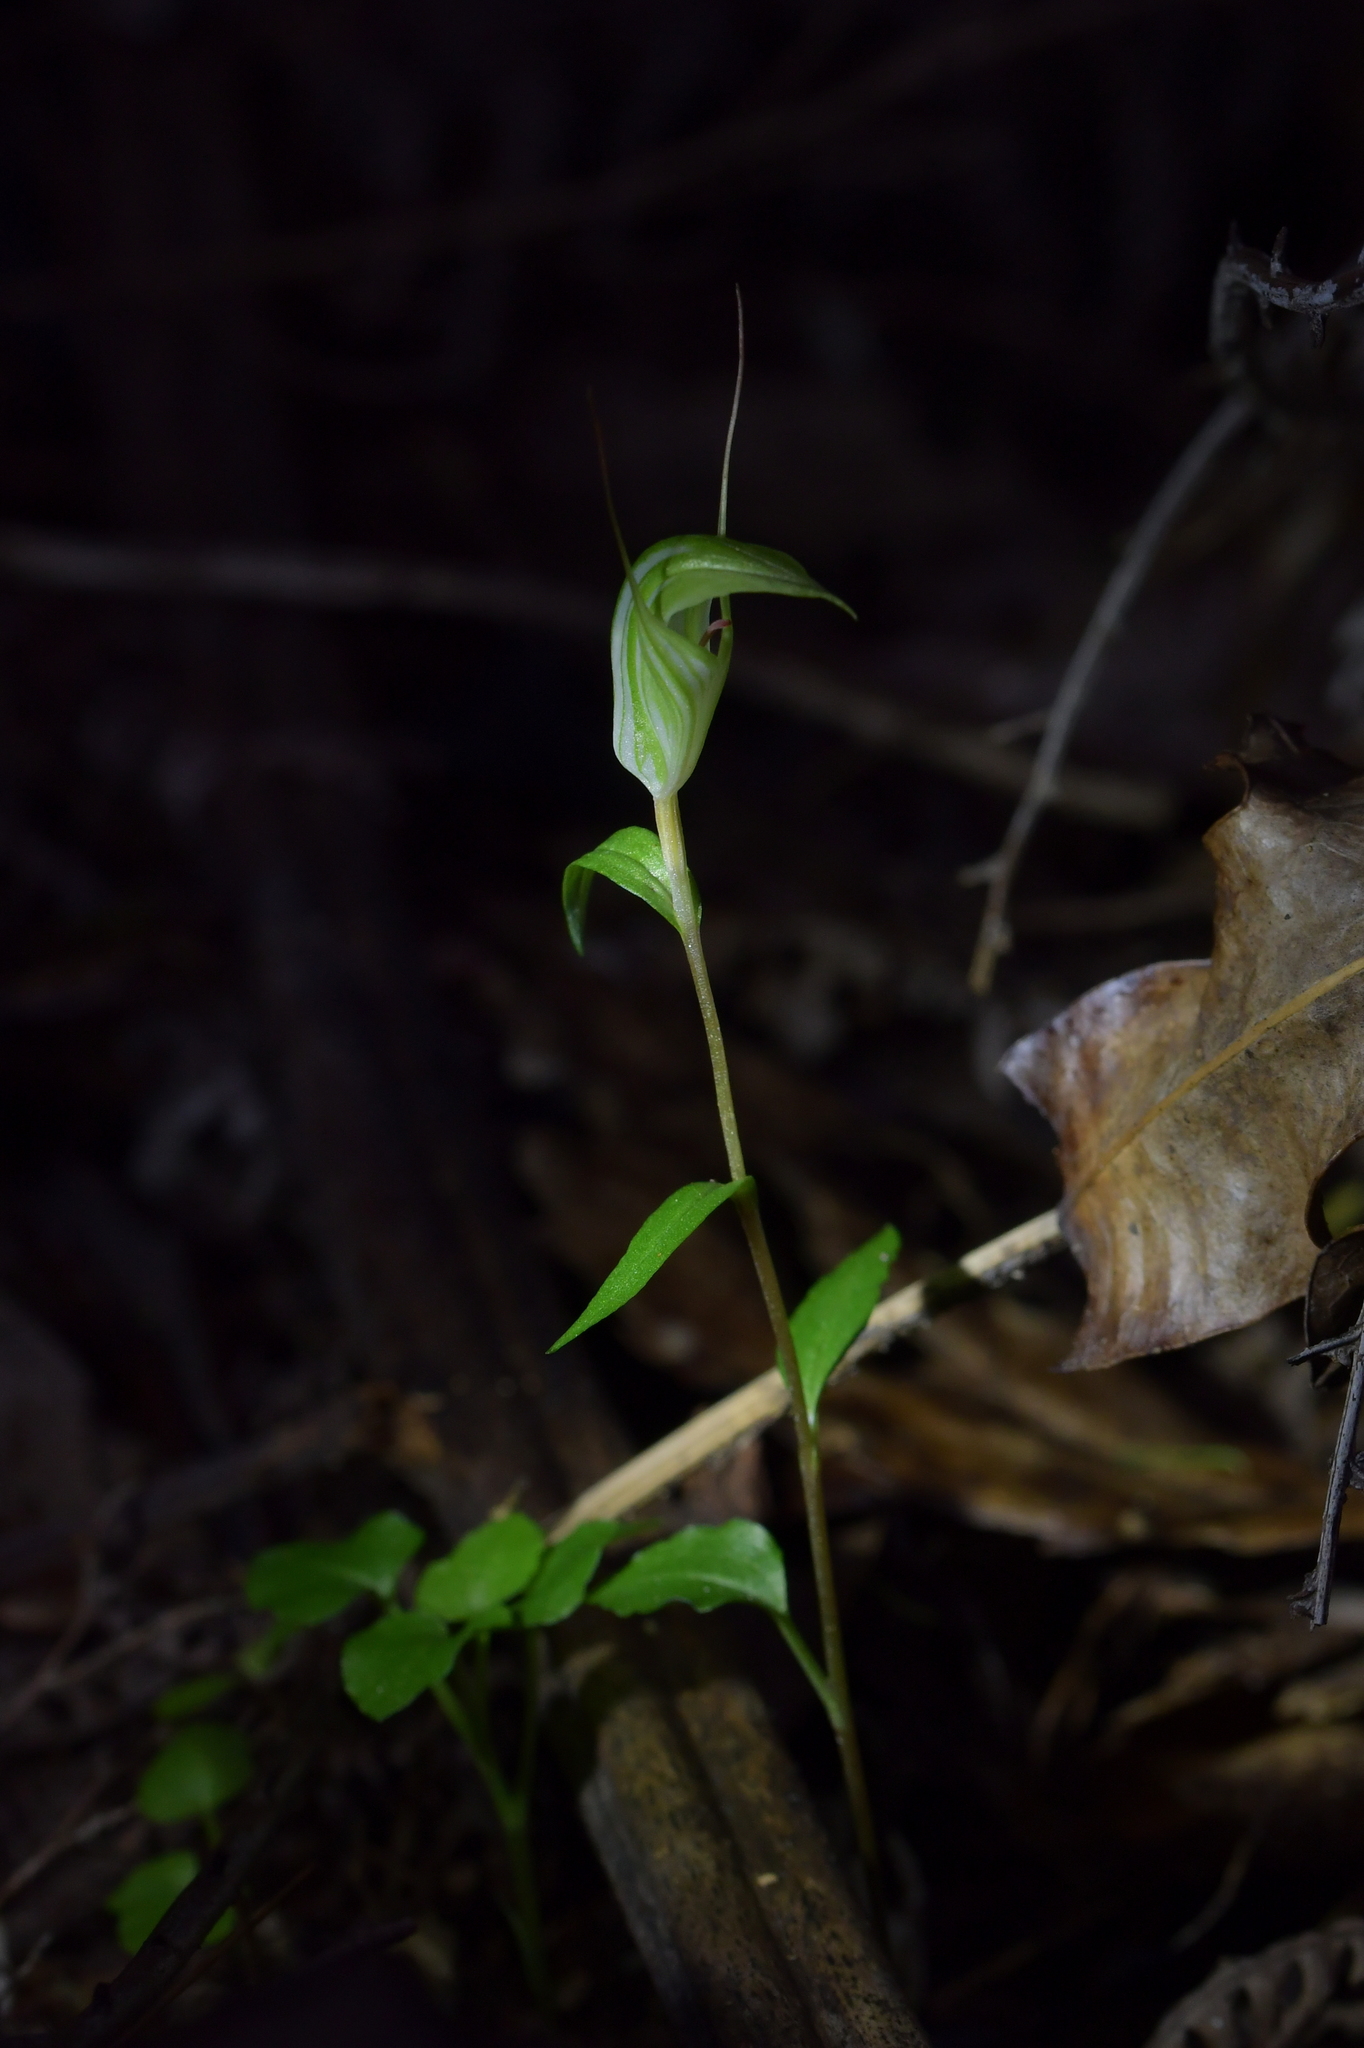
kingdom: Plantae
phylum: Tracheophyta
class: Liliopsida
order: Asparagales
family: Orchidaceae
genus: Pterostylis
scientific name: Pterostylis alobula
